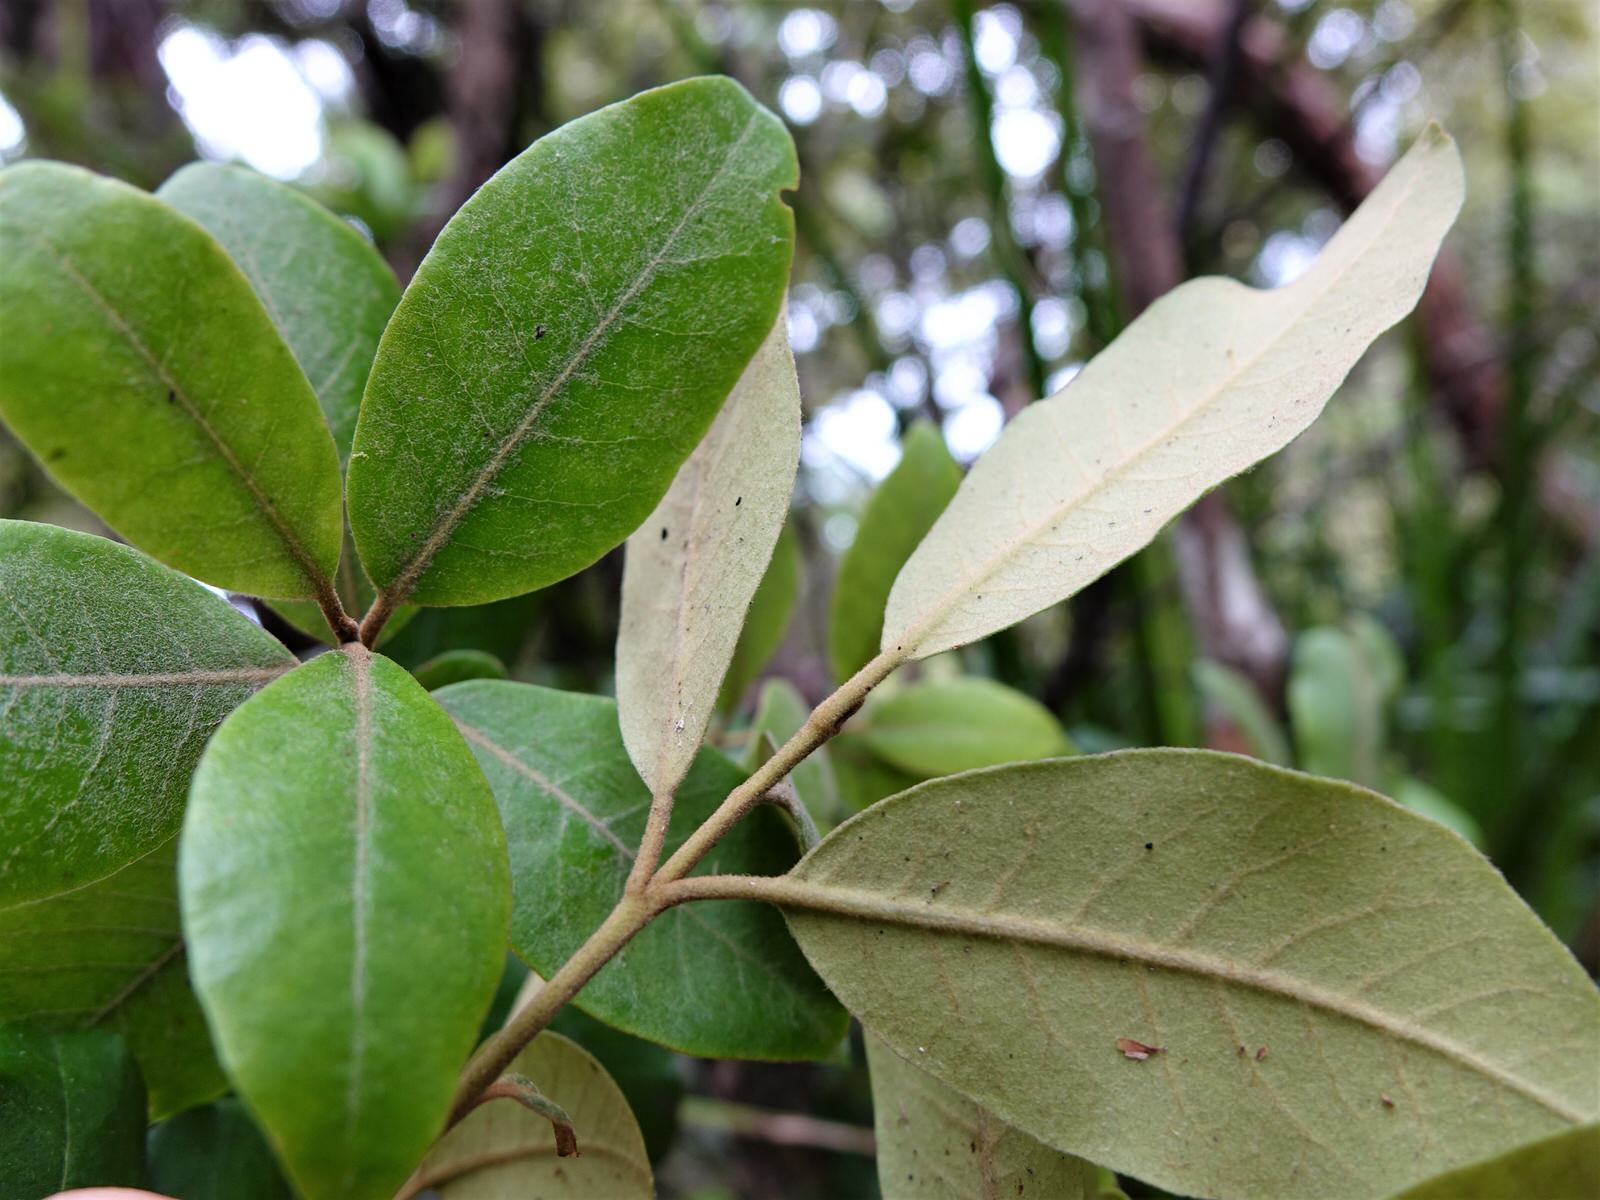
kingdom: Plantae
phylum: Tracheophyta
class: Magnoliopsida
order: Apiales
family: Pittosporaceae
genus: Pittosporum
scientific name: Pittosporum ellipticum
